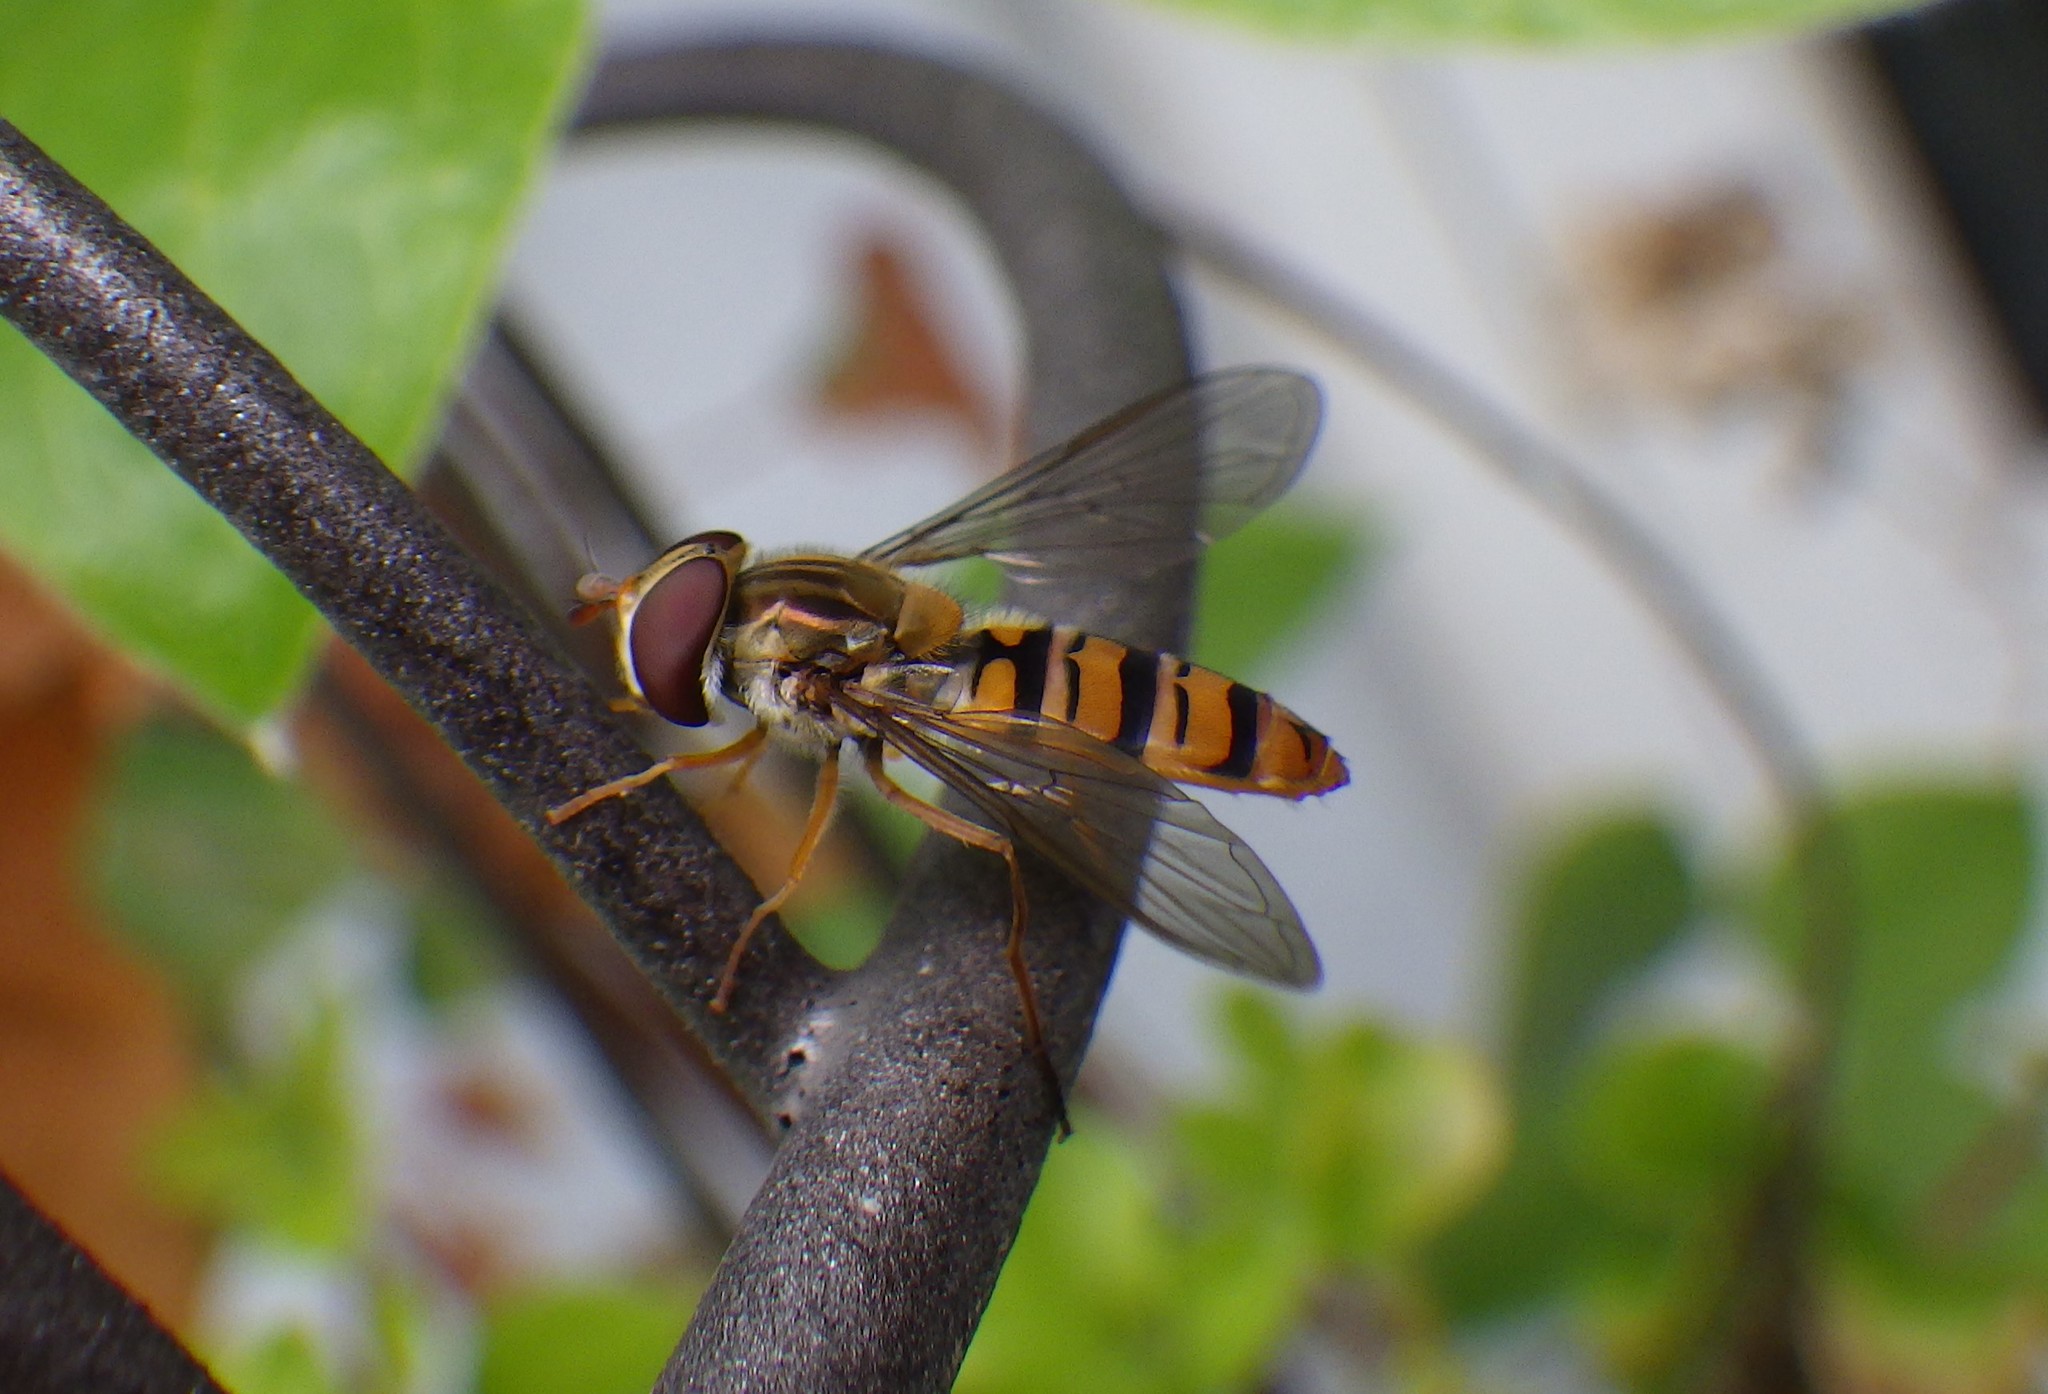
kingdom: Animalia
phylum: Arthropoda
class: Insecta
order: Diptera
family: Syrphidae
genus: Episyrphus
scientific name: Episyrphus balteatus
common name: Marmalade hoverfly
